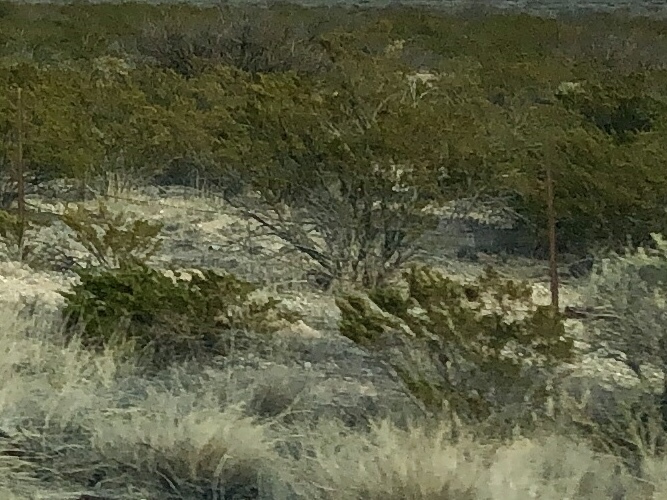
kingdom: Plantae
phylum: Tracheophyta
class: Magnoliopsida
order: Zygophyllales
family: Zygophyllaceae
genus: Larrea
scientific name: Larrea tridentata
